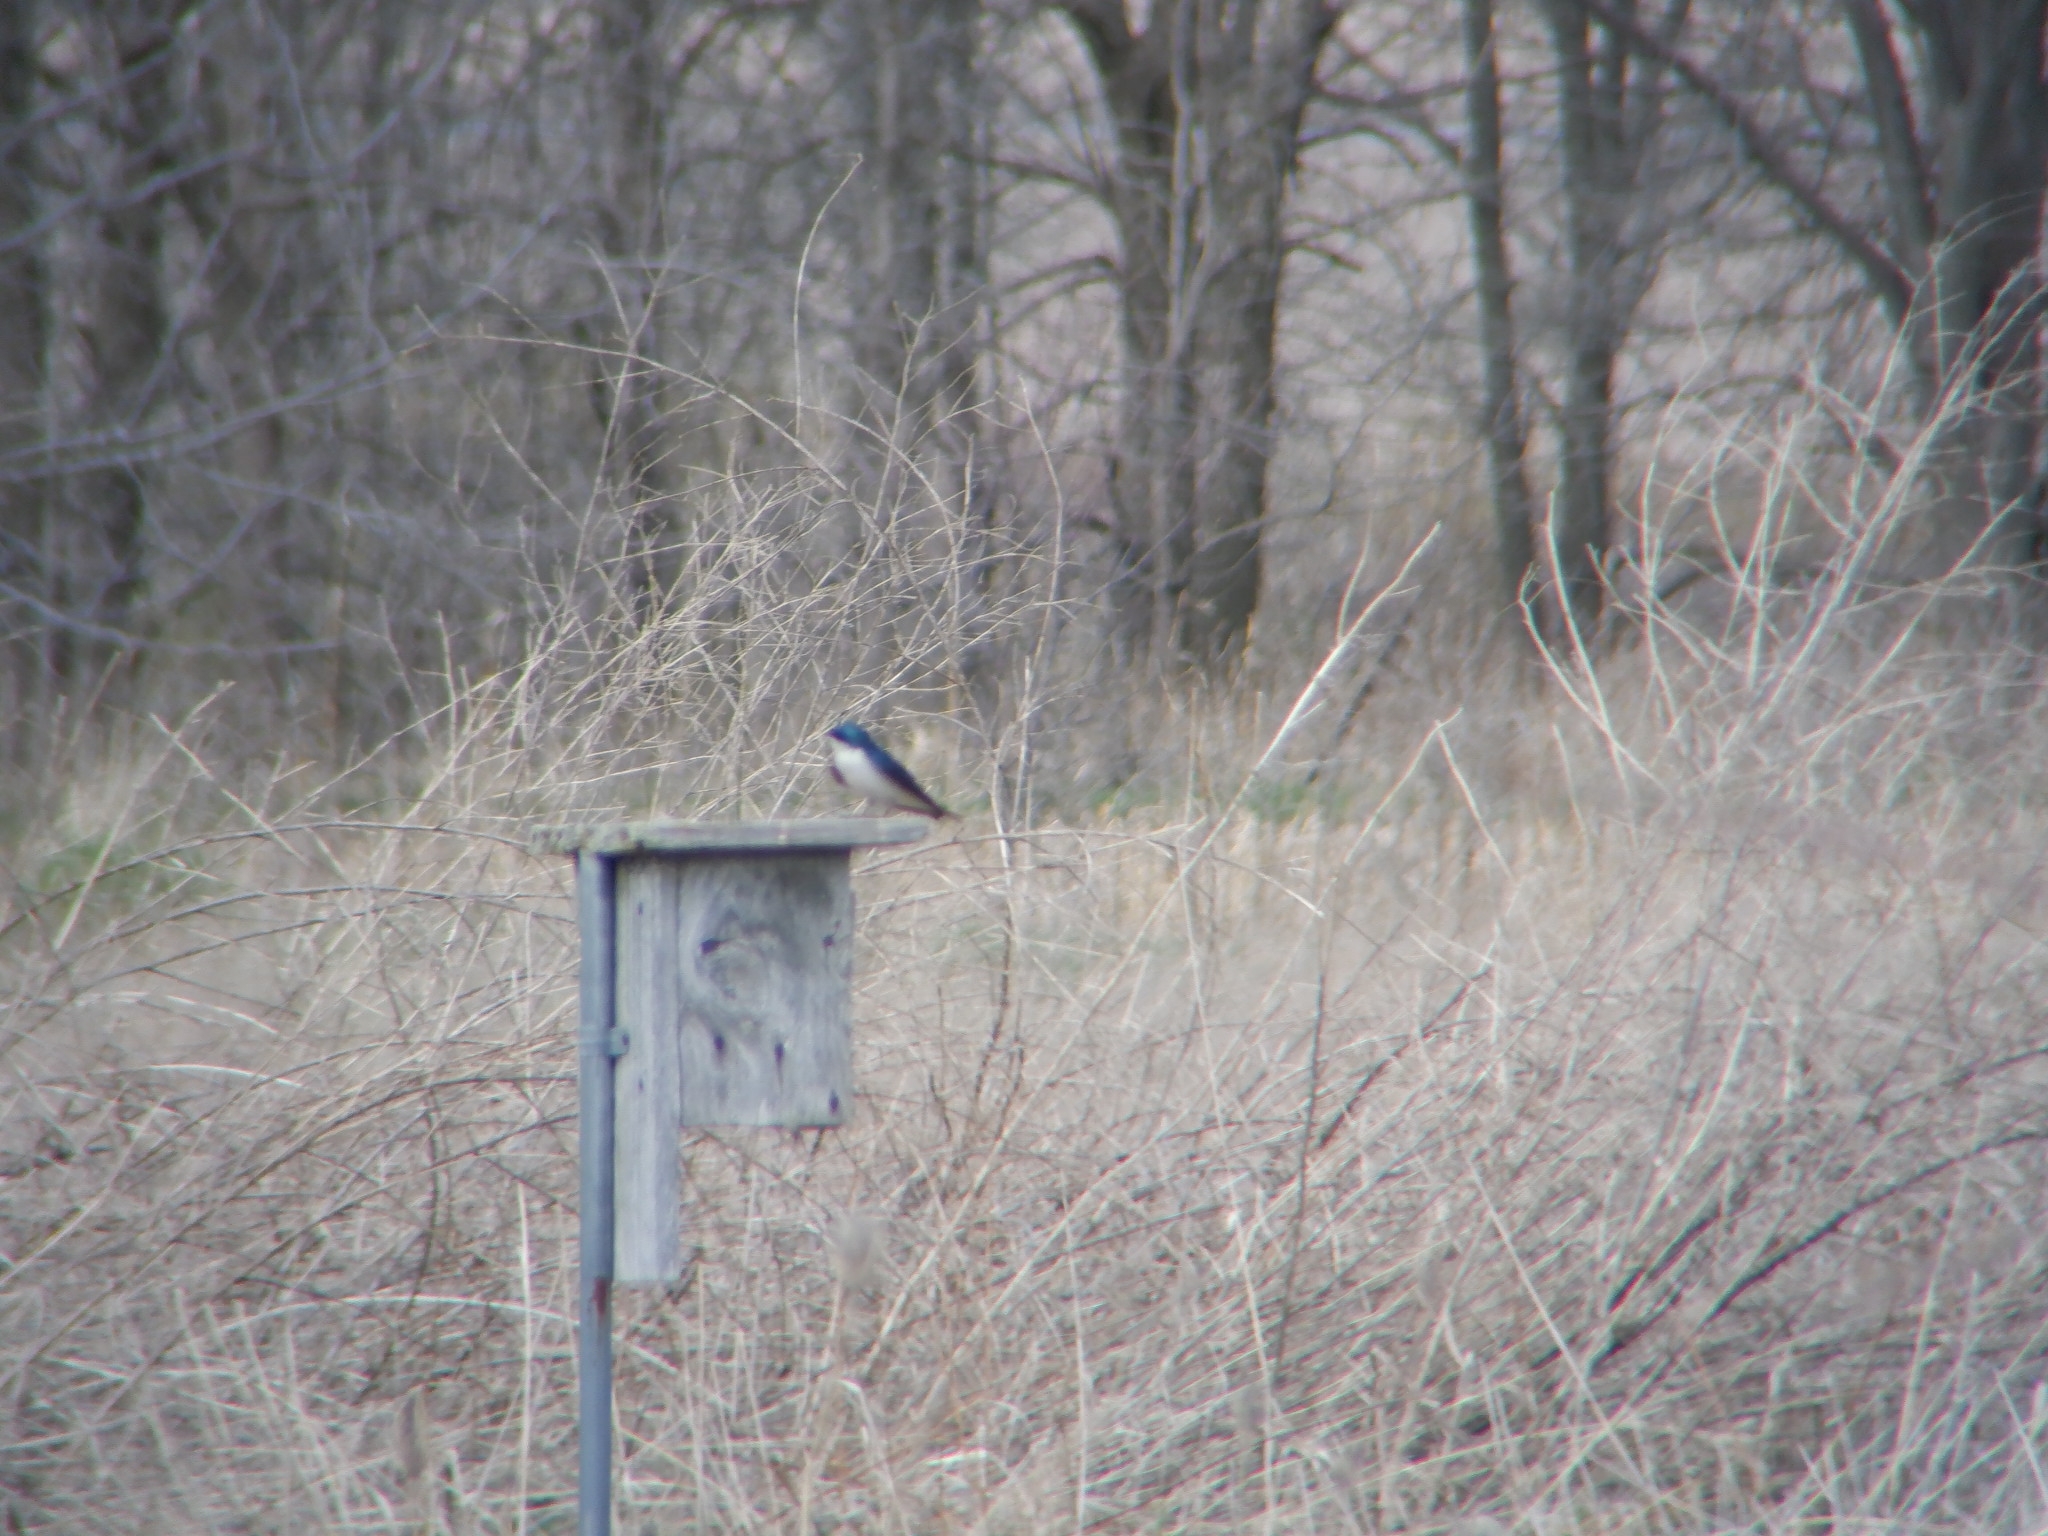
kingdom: Animalia
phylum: Chordata
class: Aves
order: Passeriformes
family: Hirundinidae
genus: Tachycineta
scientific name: Tachycineta bicolor
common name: Tree swallow
